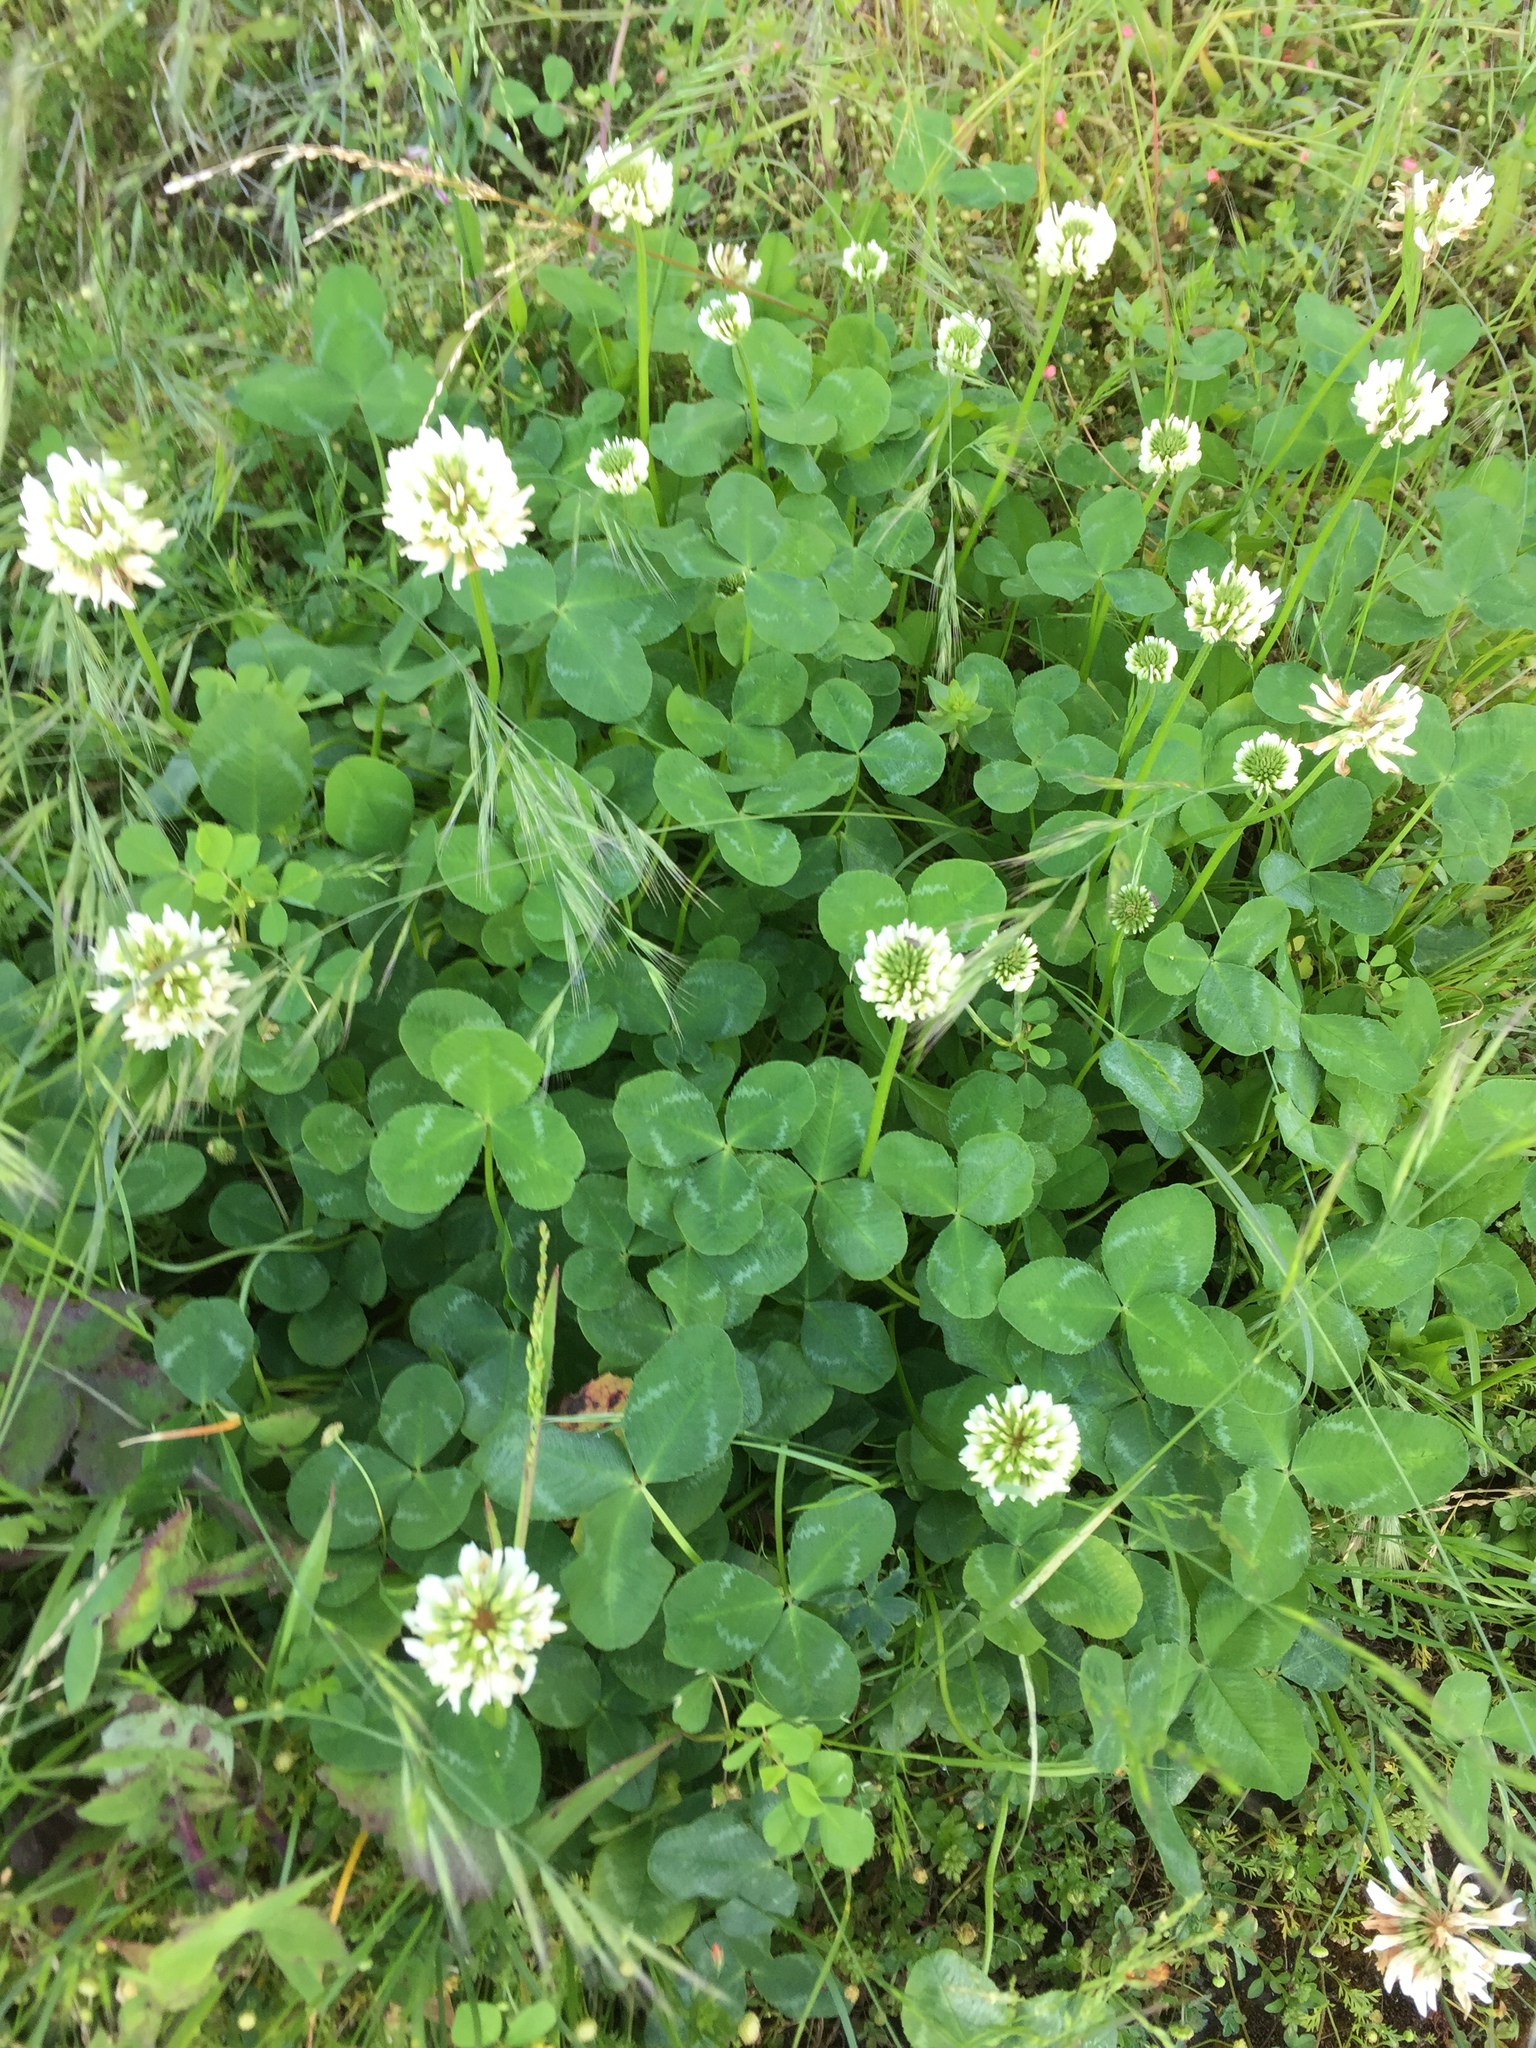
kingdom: Plantae
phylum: Tracheophyta
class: Magnoliopsida
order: Fabales
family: Fabaceae
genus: Trifolium
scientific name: Trifolium repens
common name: White clover
